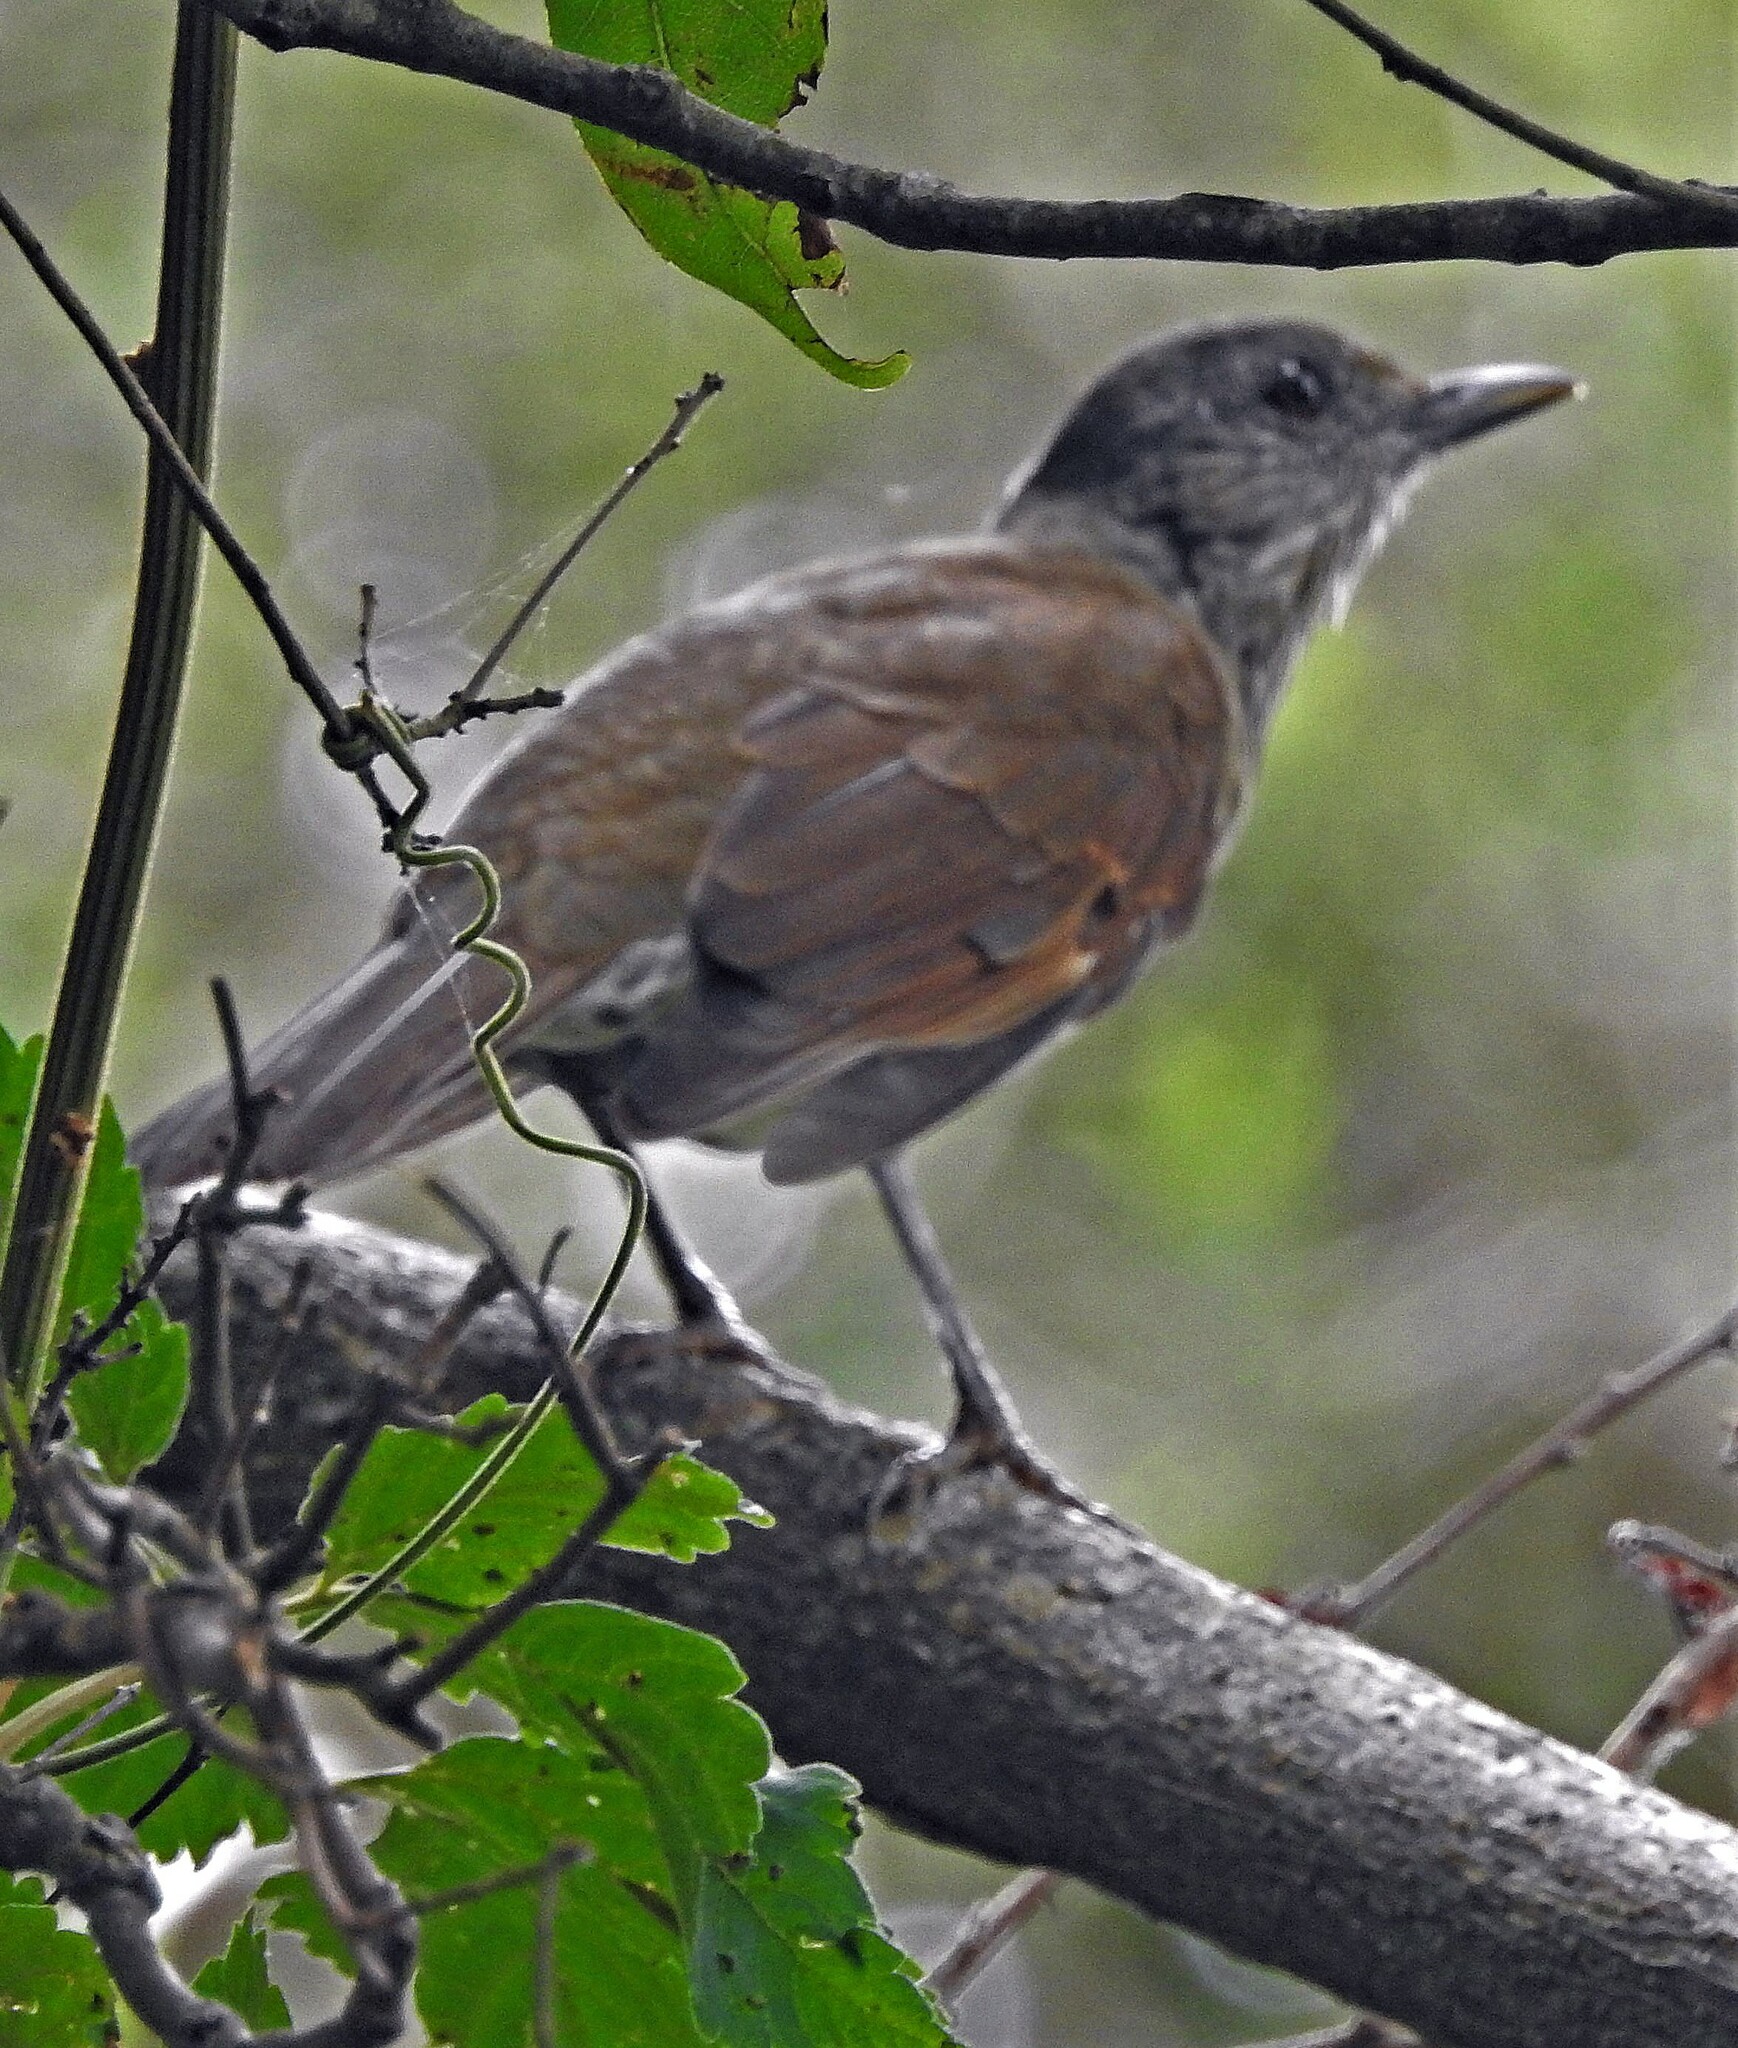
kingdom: Animalia
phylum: Chordata
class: Aves
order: Passeriformes
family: Turdidae
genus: Turdus
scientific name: Turdus leucomelas
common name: Pale-breasted thrush
